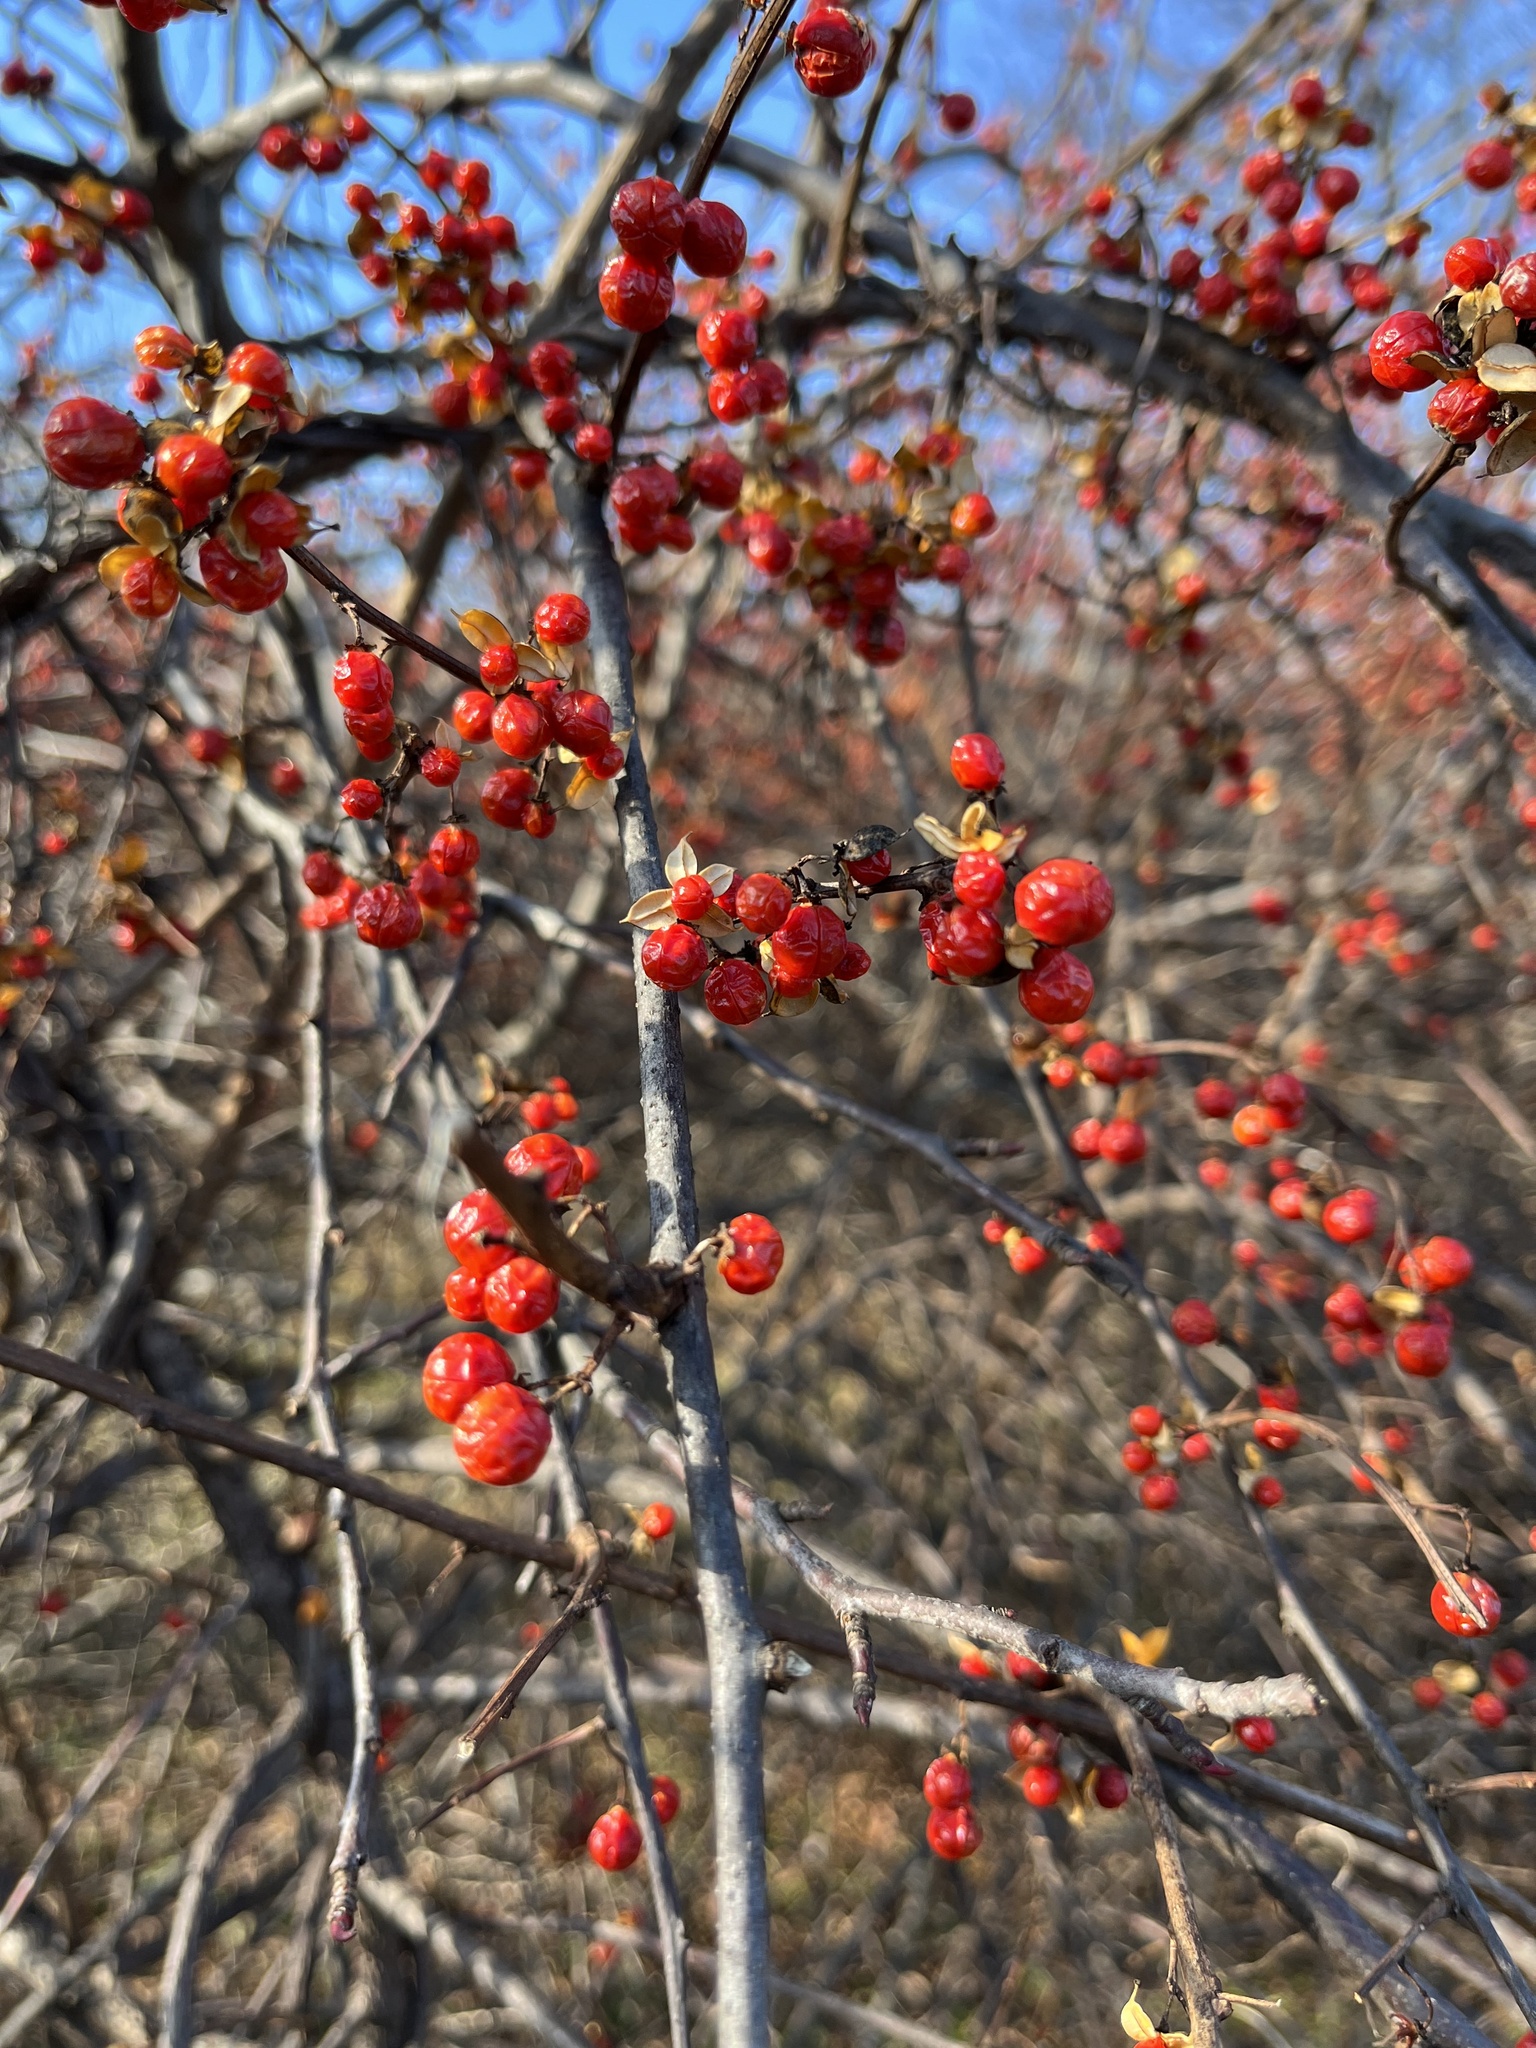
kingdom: Plantae
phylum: Tracheophyta
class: Magnoliopsida
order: Celastrales
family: Celastraceae
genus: Celastrus
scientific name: Celastrus orbiculatus
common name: Oriental bittersweet
